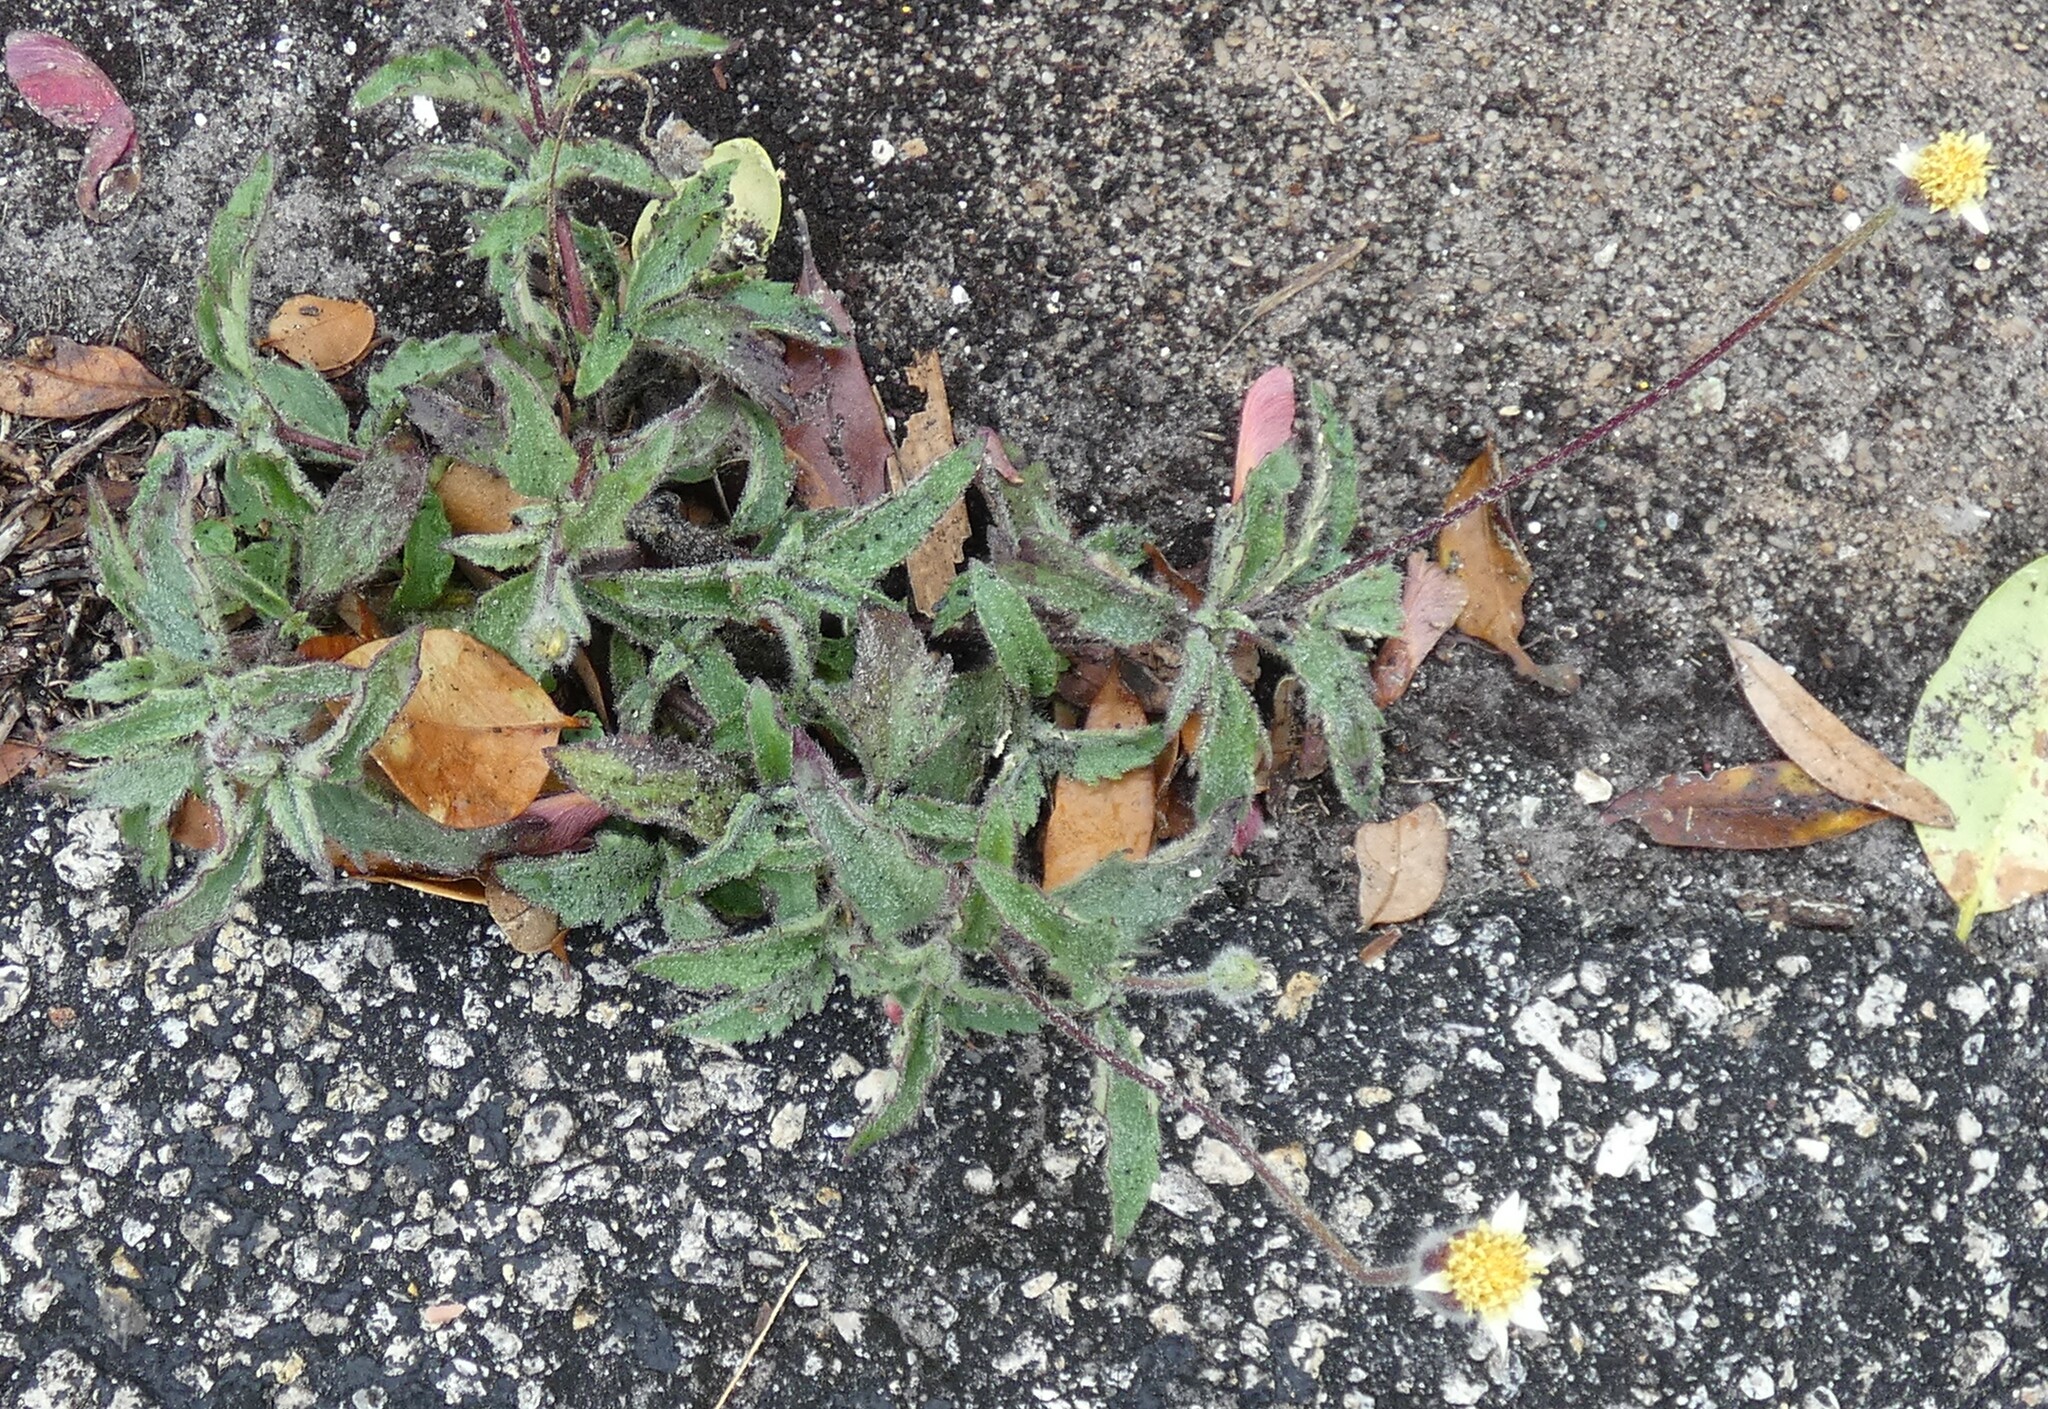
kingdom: Plantae
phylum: Tracheophyta
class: Magnoliopsida
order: Asterales
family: Asteraceae
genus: Tridax
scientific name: Tridax procumbens
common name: Coatbuttons
